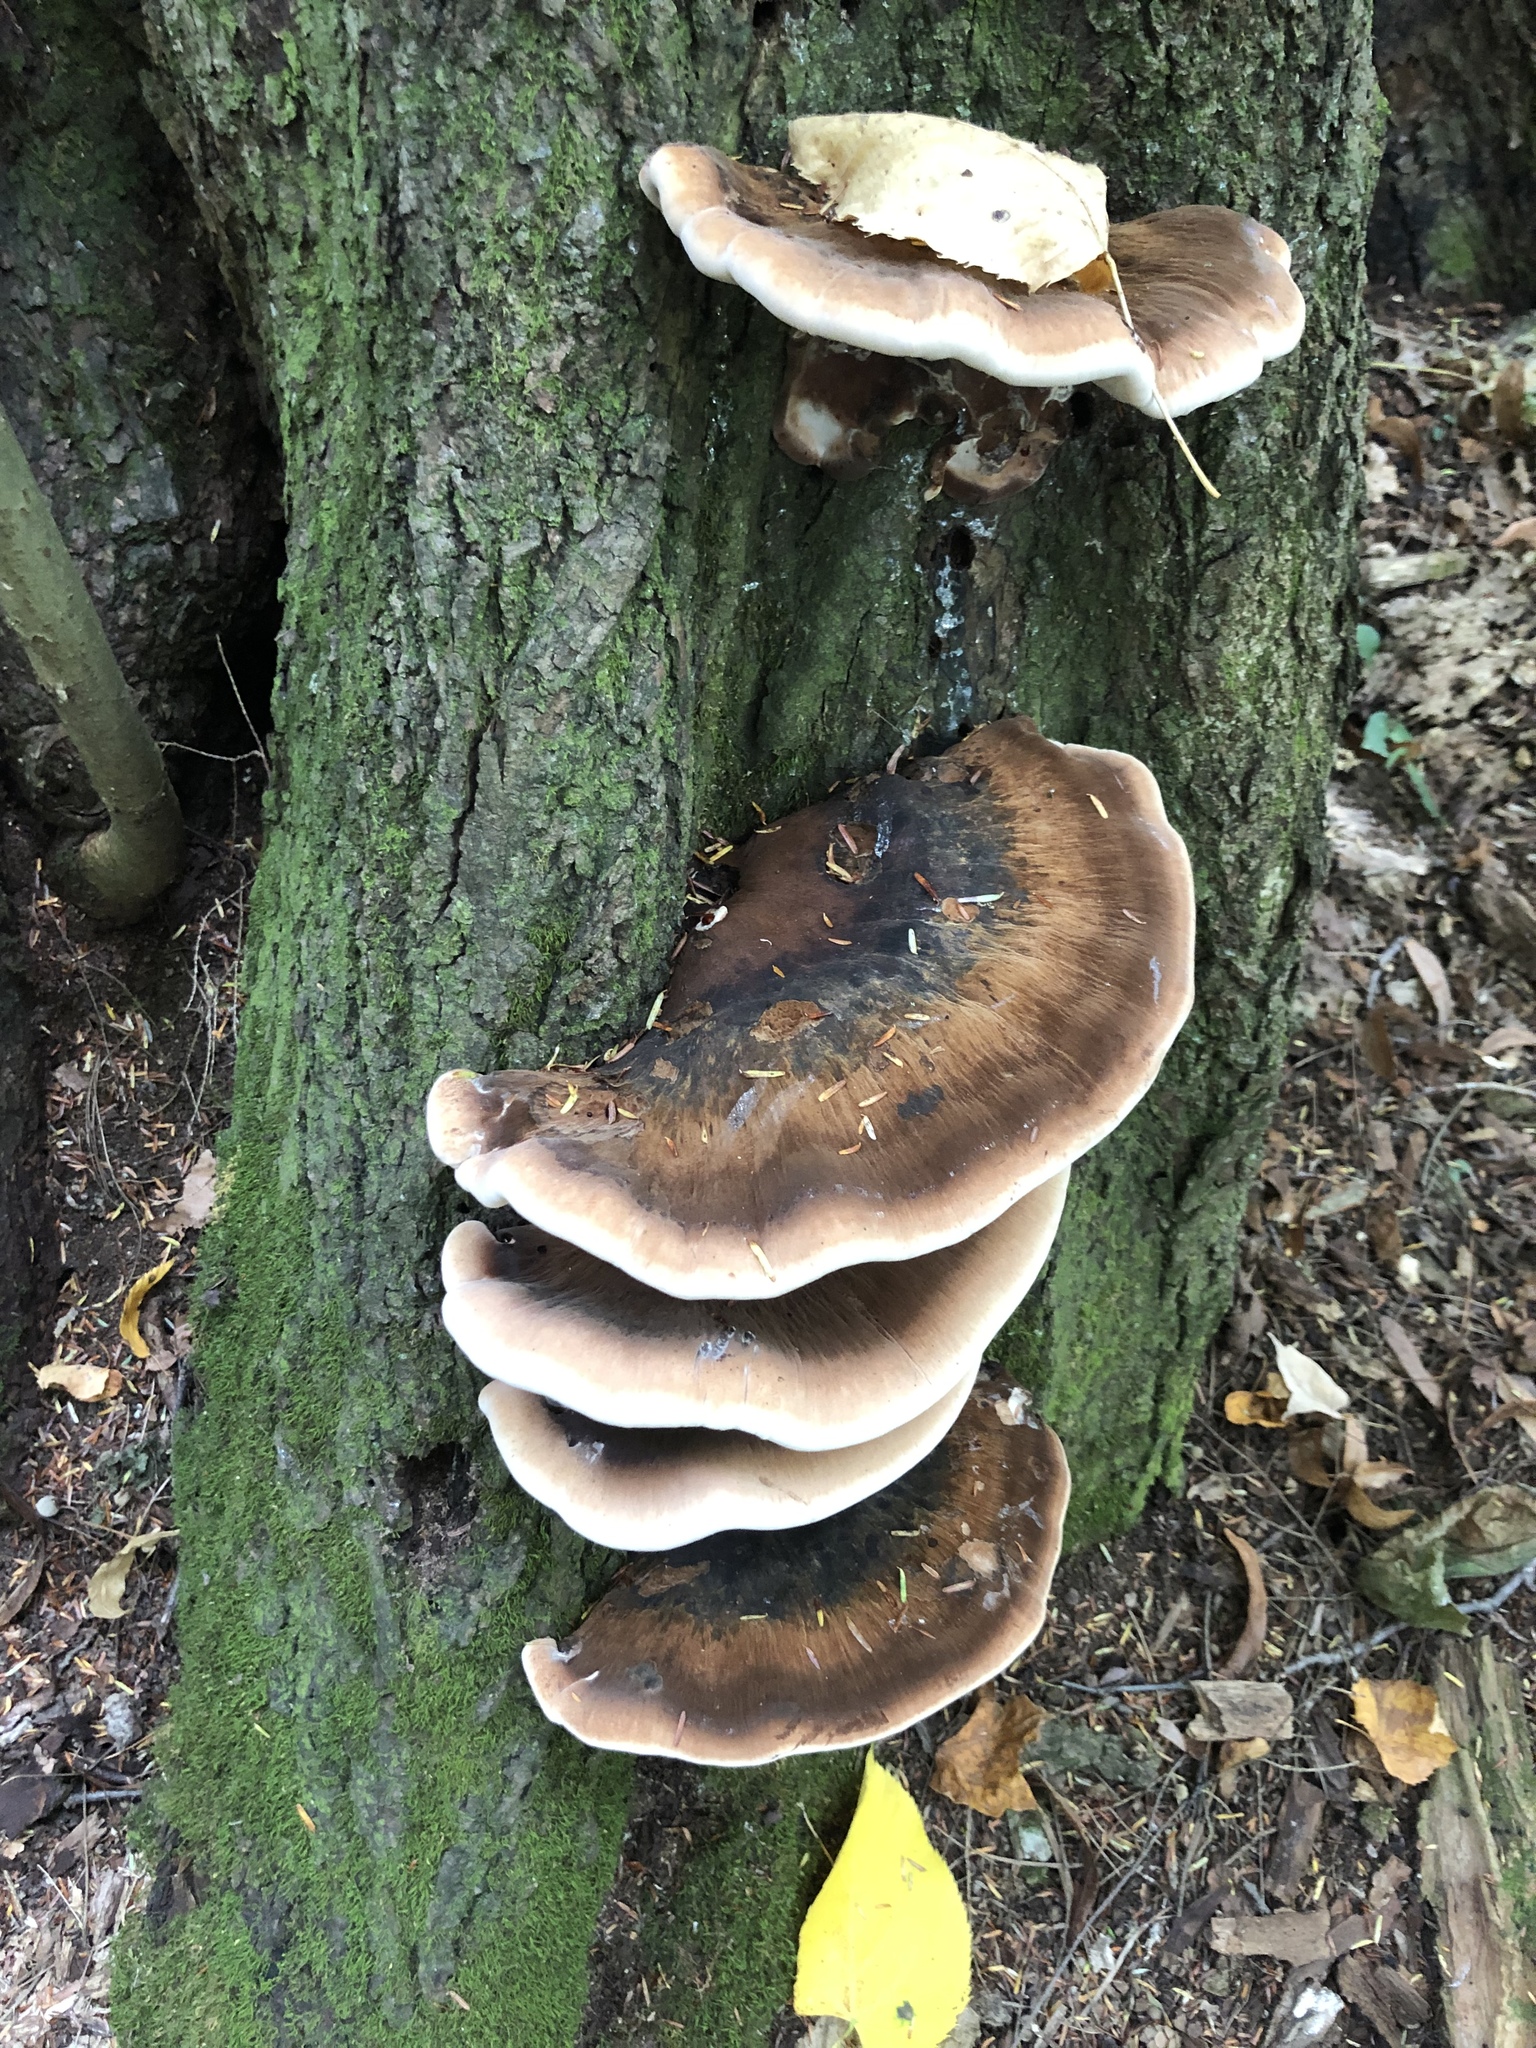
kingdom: Fungi
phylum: Basidiomycota
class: Agaricomycetes
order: Polyporales
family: Ischnodermataceae
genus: Ischnoderma
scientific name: Ischnoderma resinosum
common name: Resinous polypore
